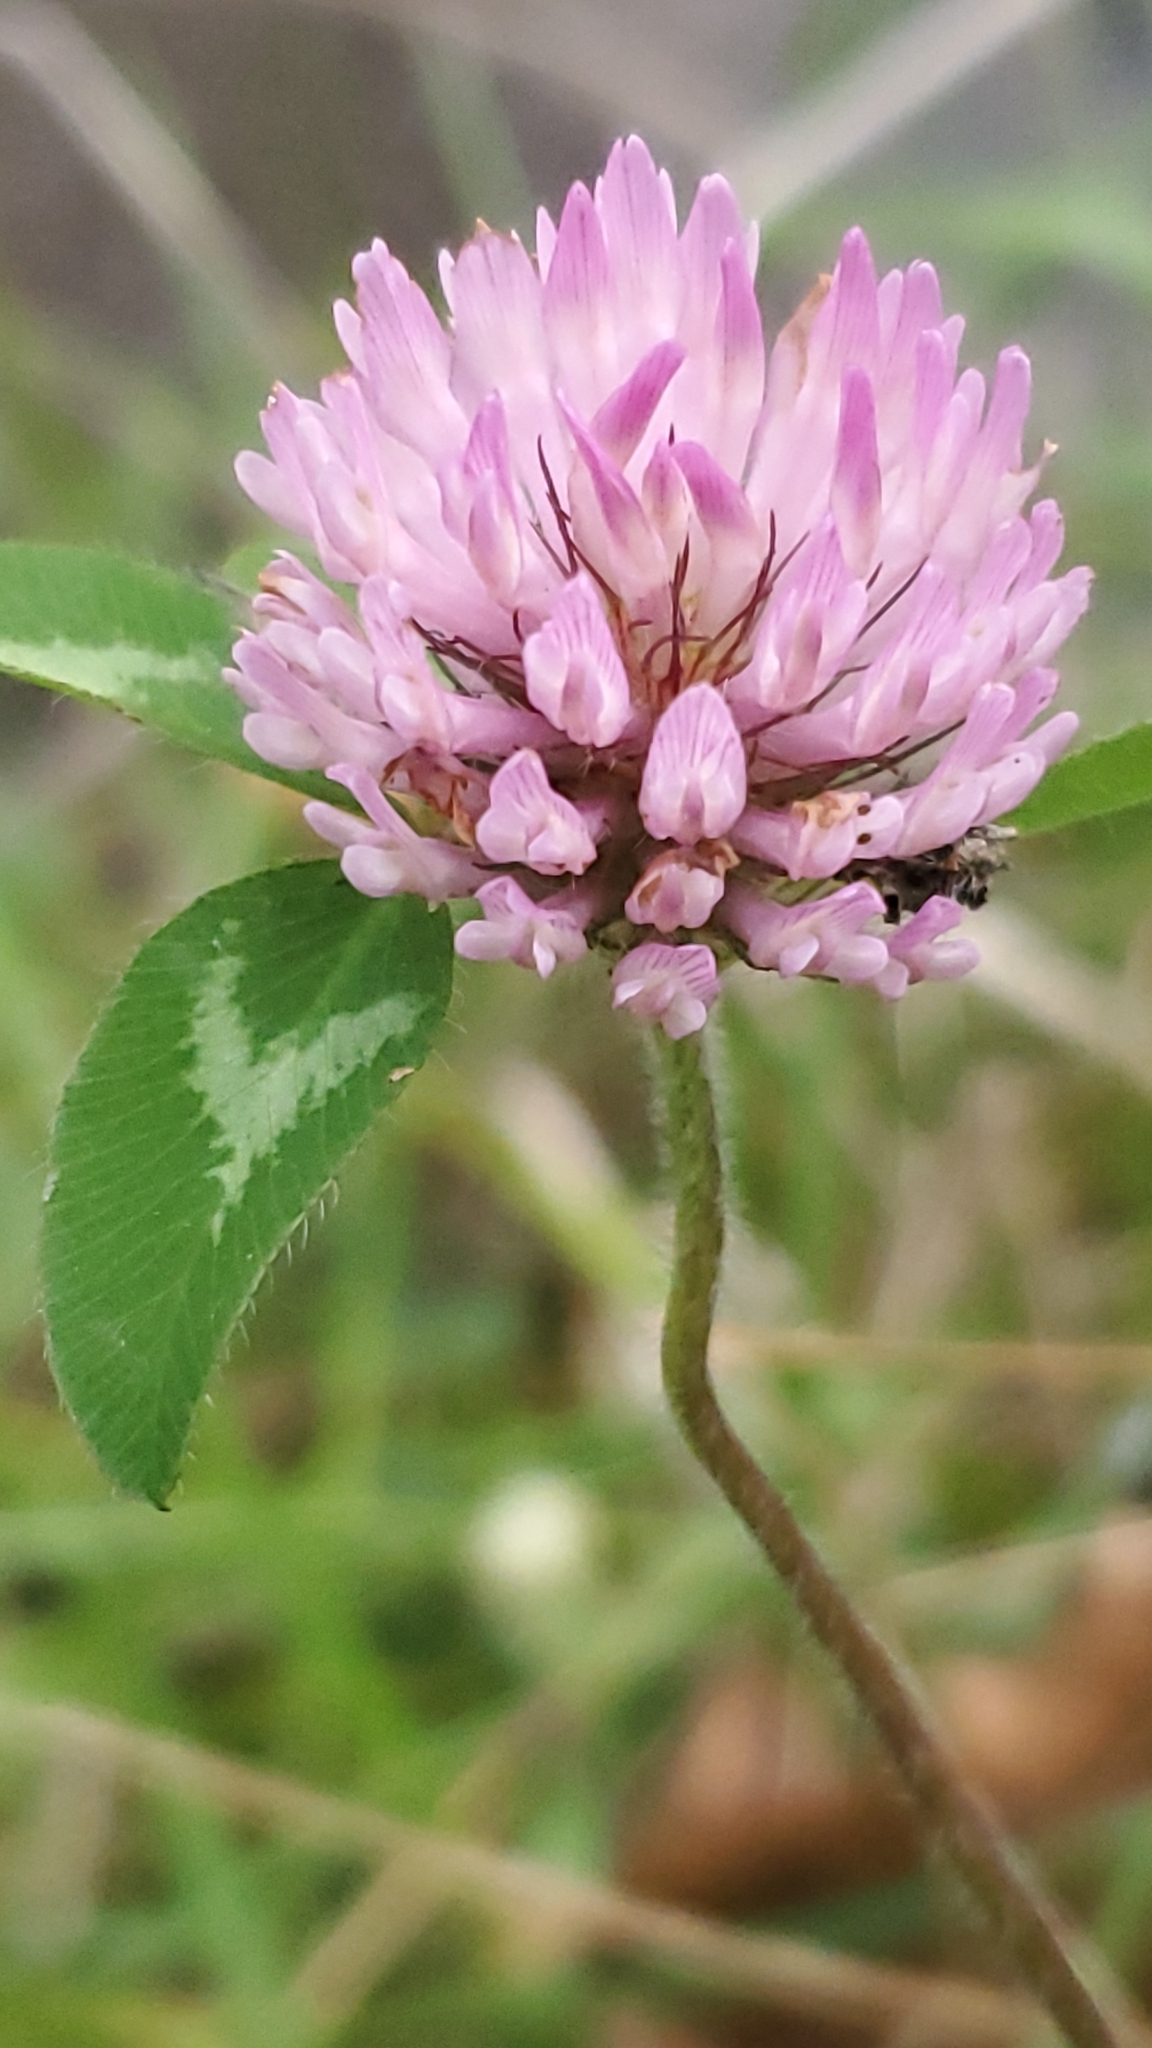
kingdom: Plantae
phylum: Tracheophyta
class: Magnoliopsida
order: Fabales
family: Fabaceae
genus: Trifolium
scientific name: Trifolium pratense
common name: Red clover
